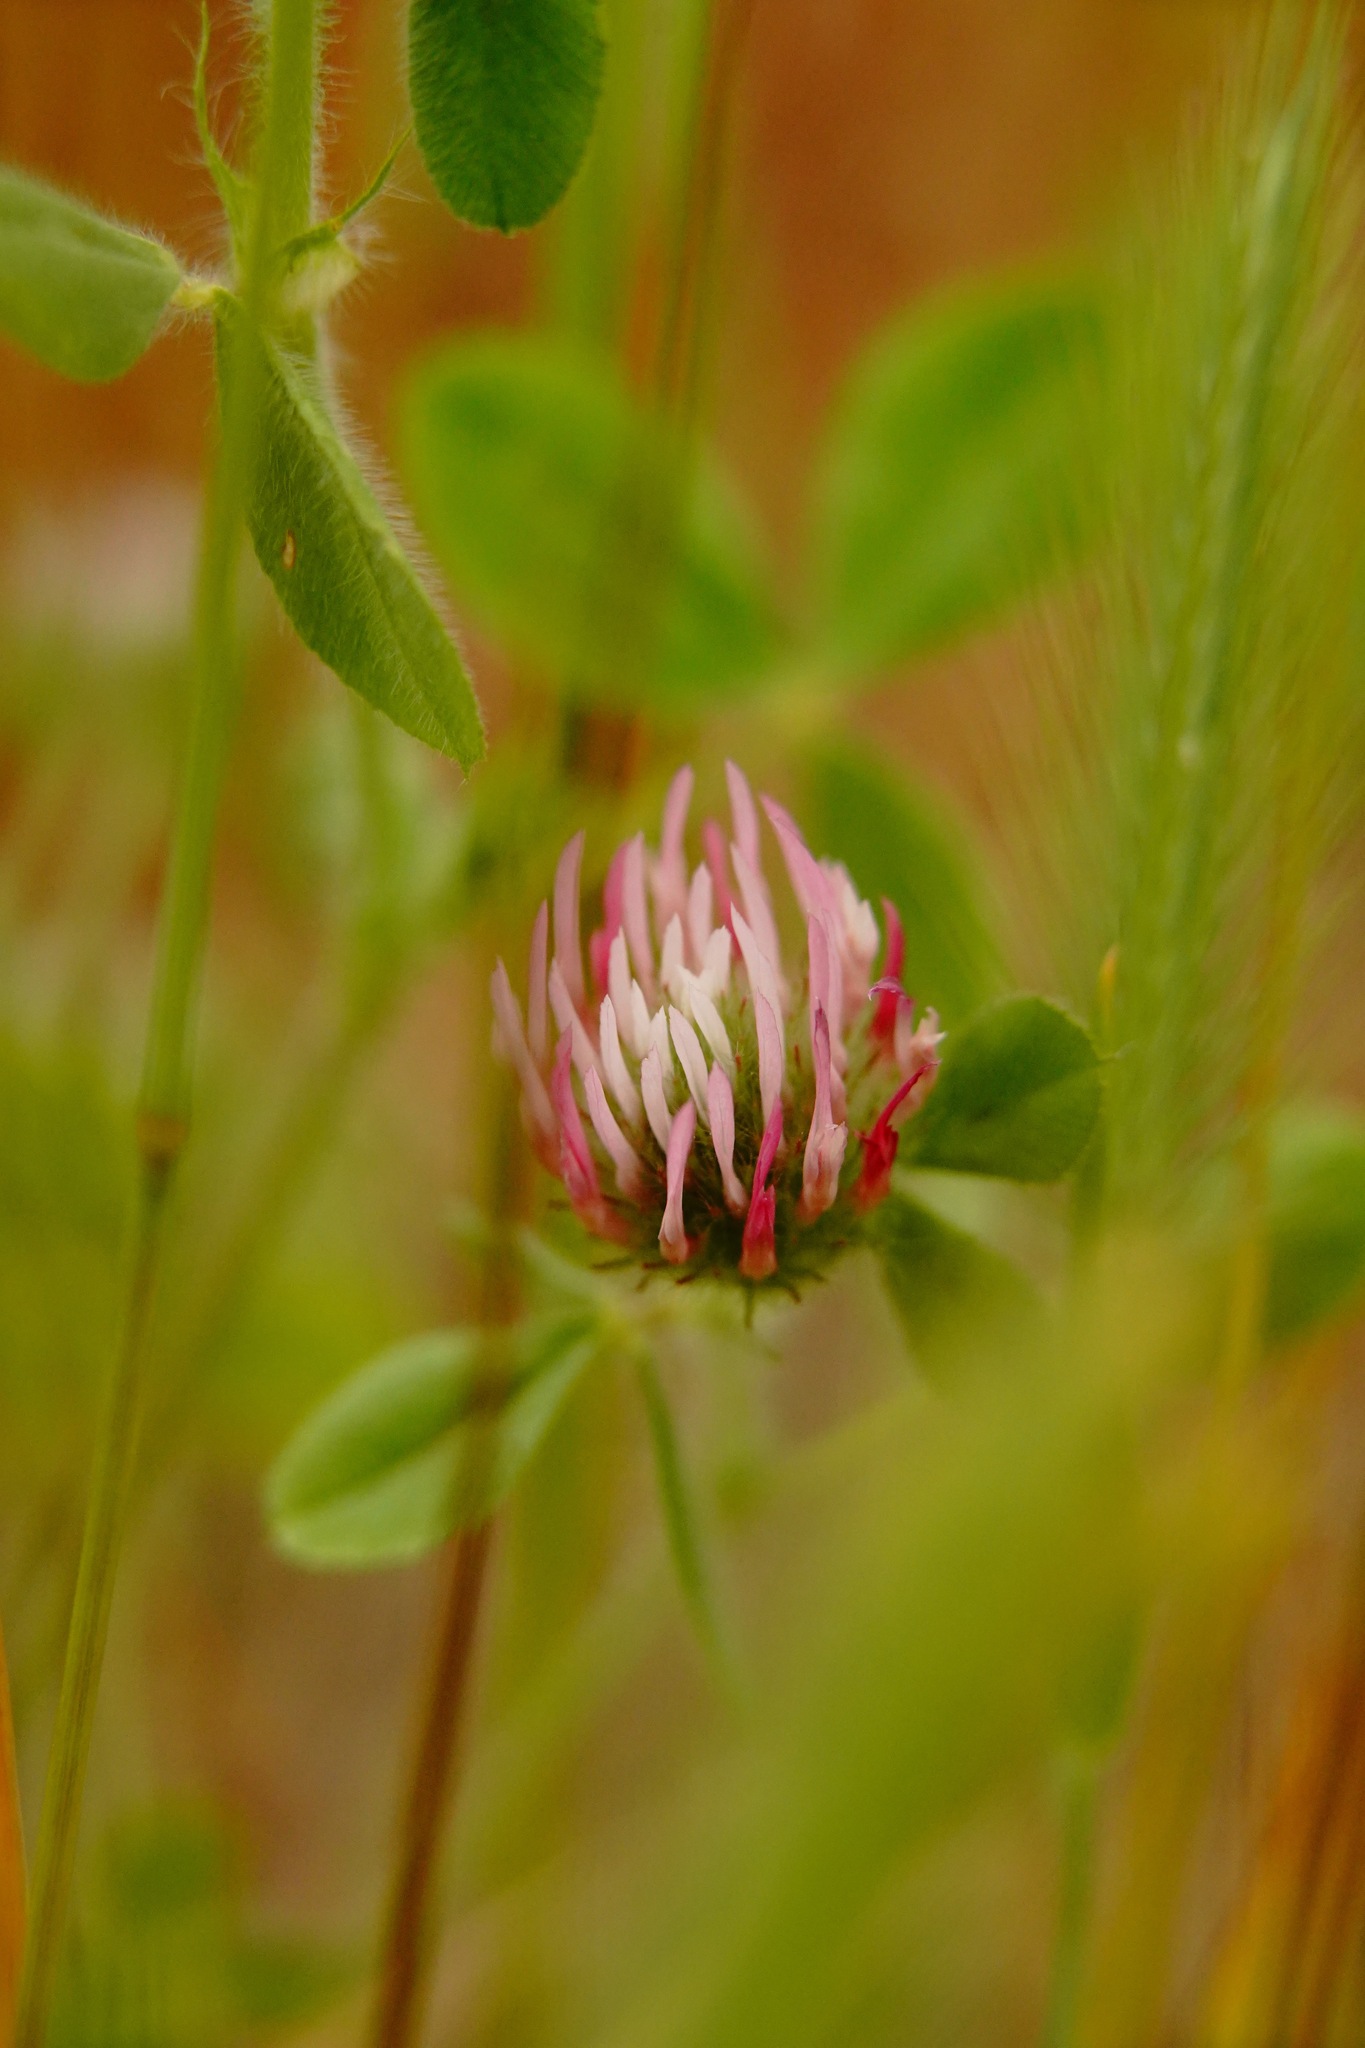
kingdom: Plantae
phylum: Tracheophyta
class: Magnoliopsida
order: Fabales
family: Fabaceae
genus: Trifolium
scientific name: Trifolium hirtum
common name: Rose clover
